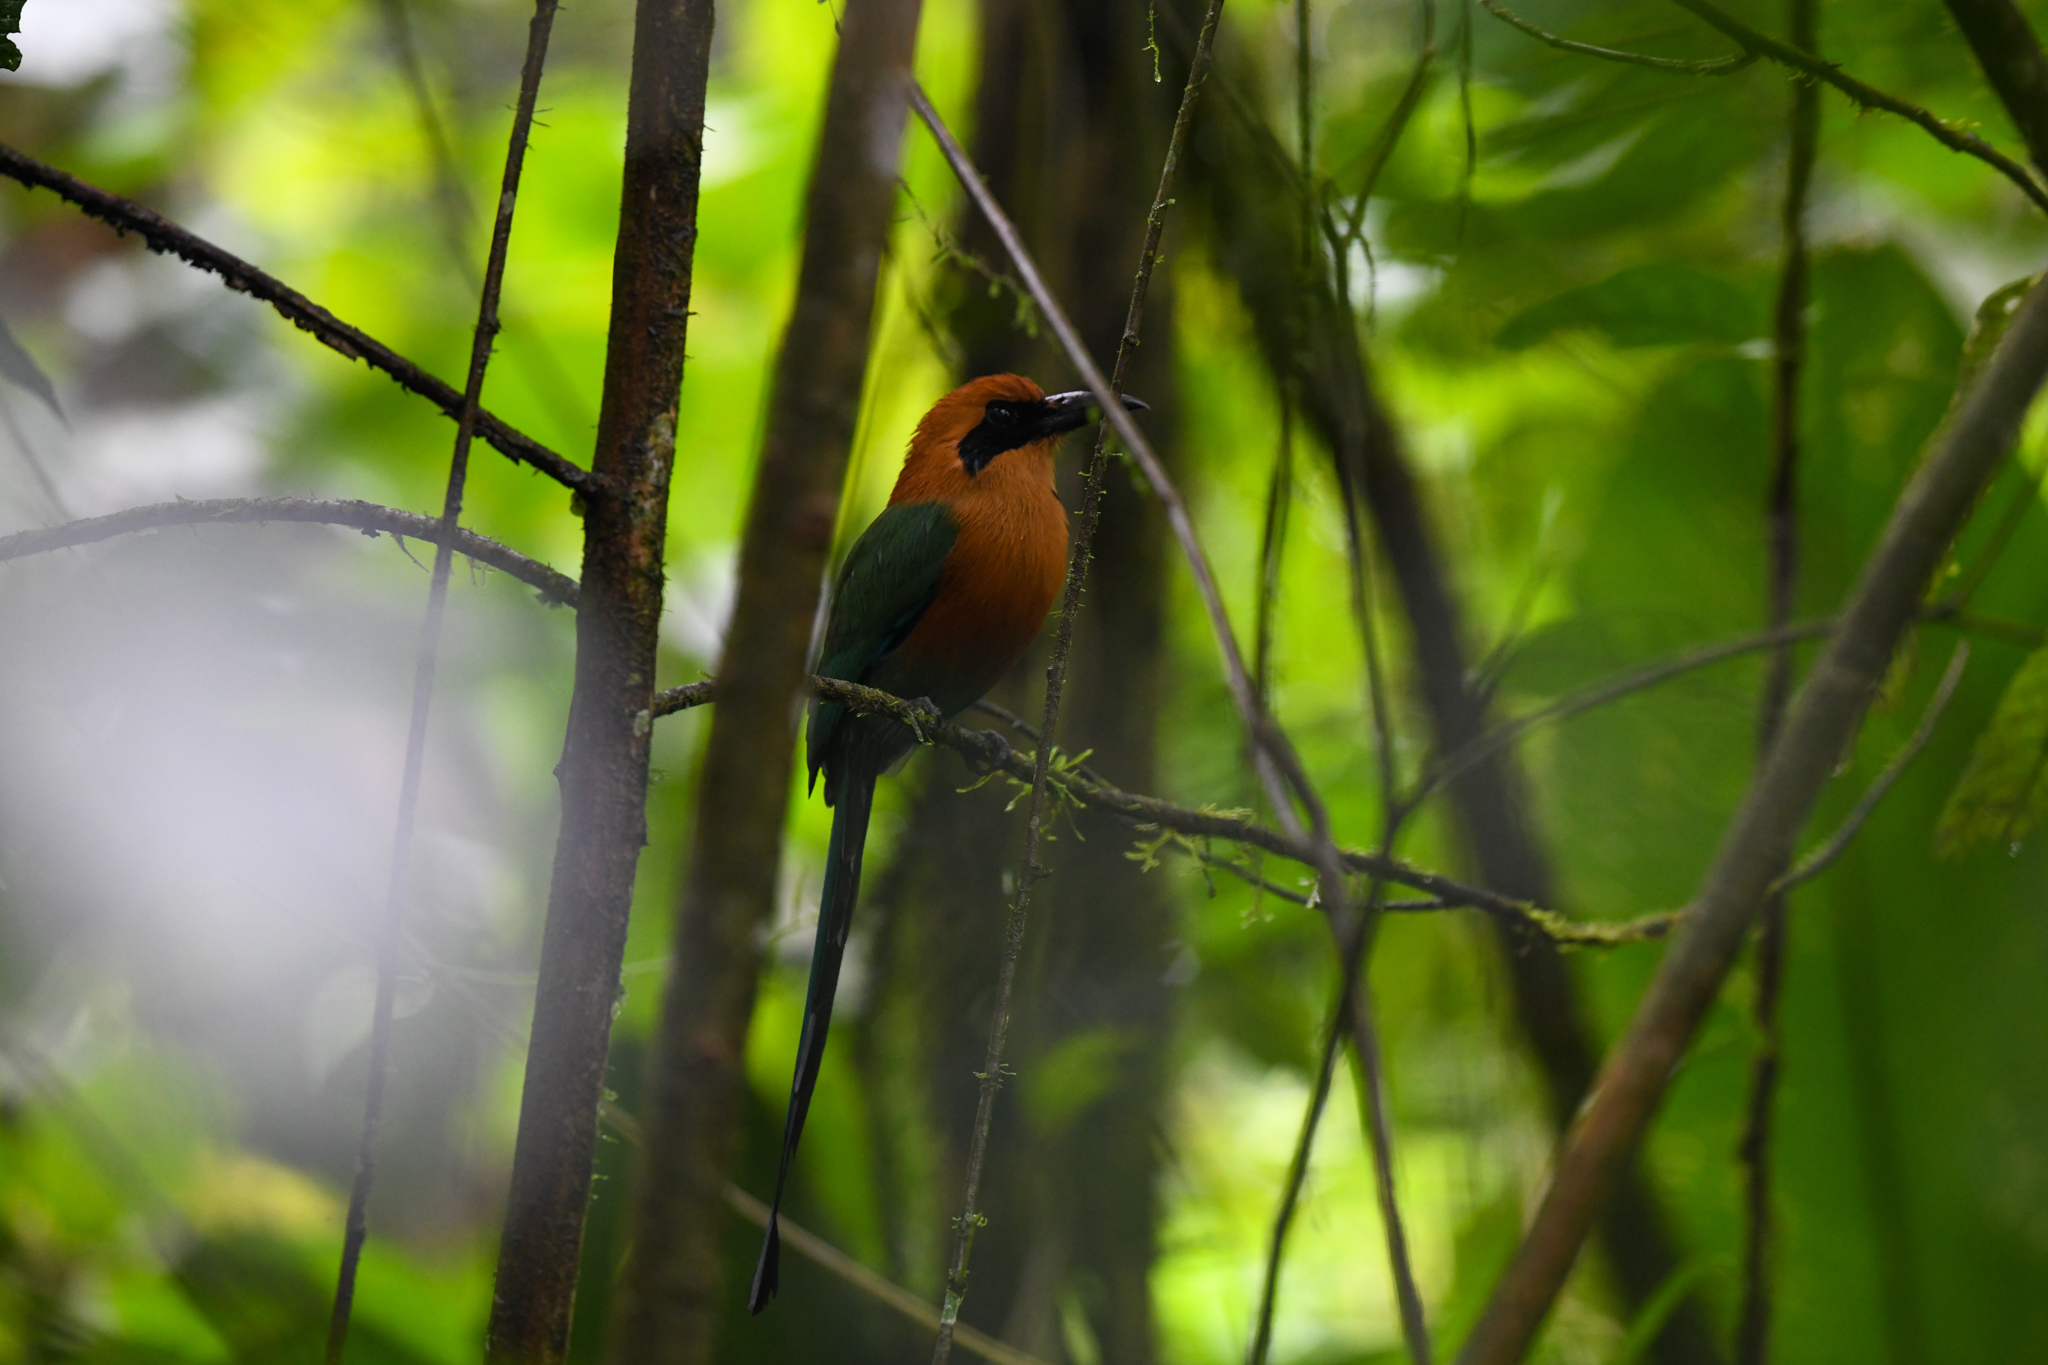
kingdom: Animalia
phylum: Chordata
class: Aves
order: Coraciiformes
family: Momotidae
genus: Baryphthengus
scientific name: Baryphthengus martii
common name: Rufous motmot
